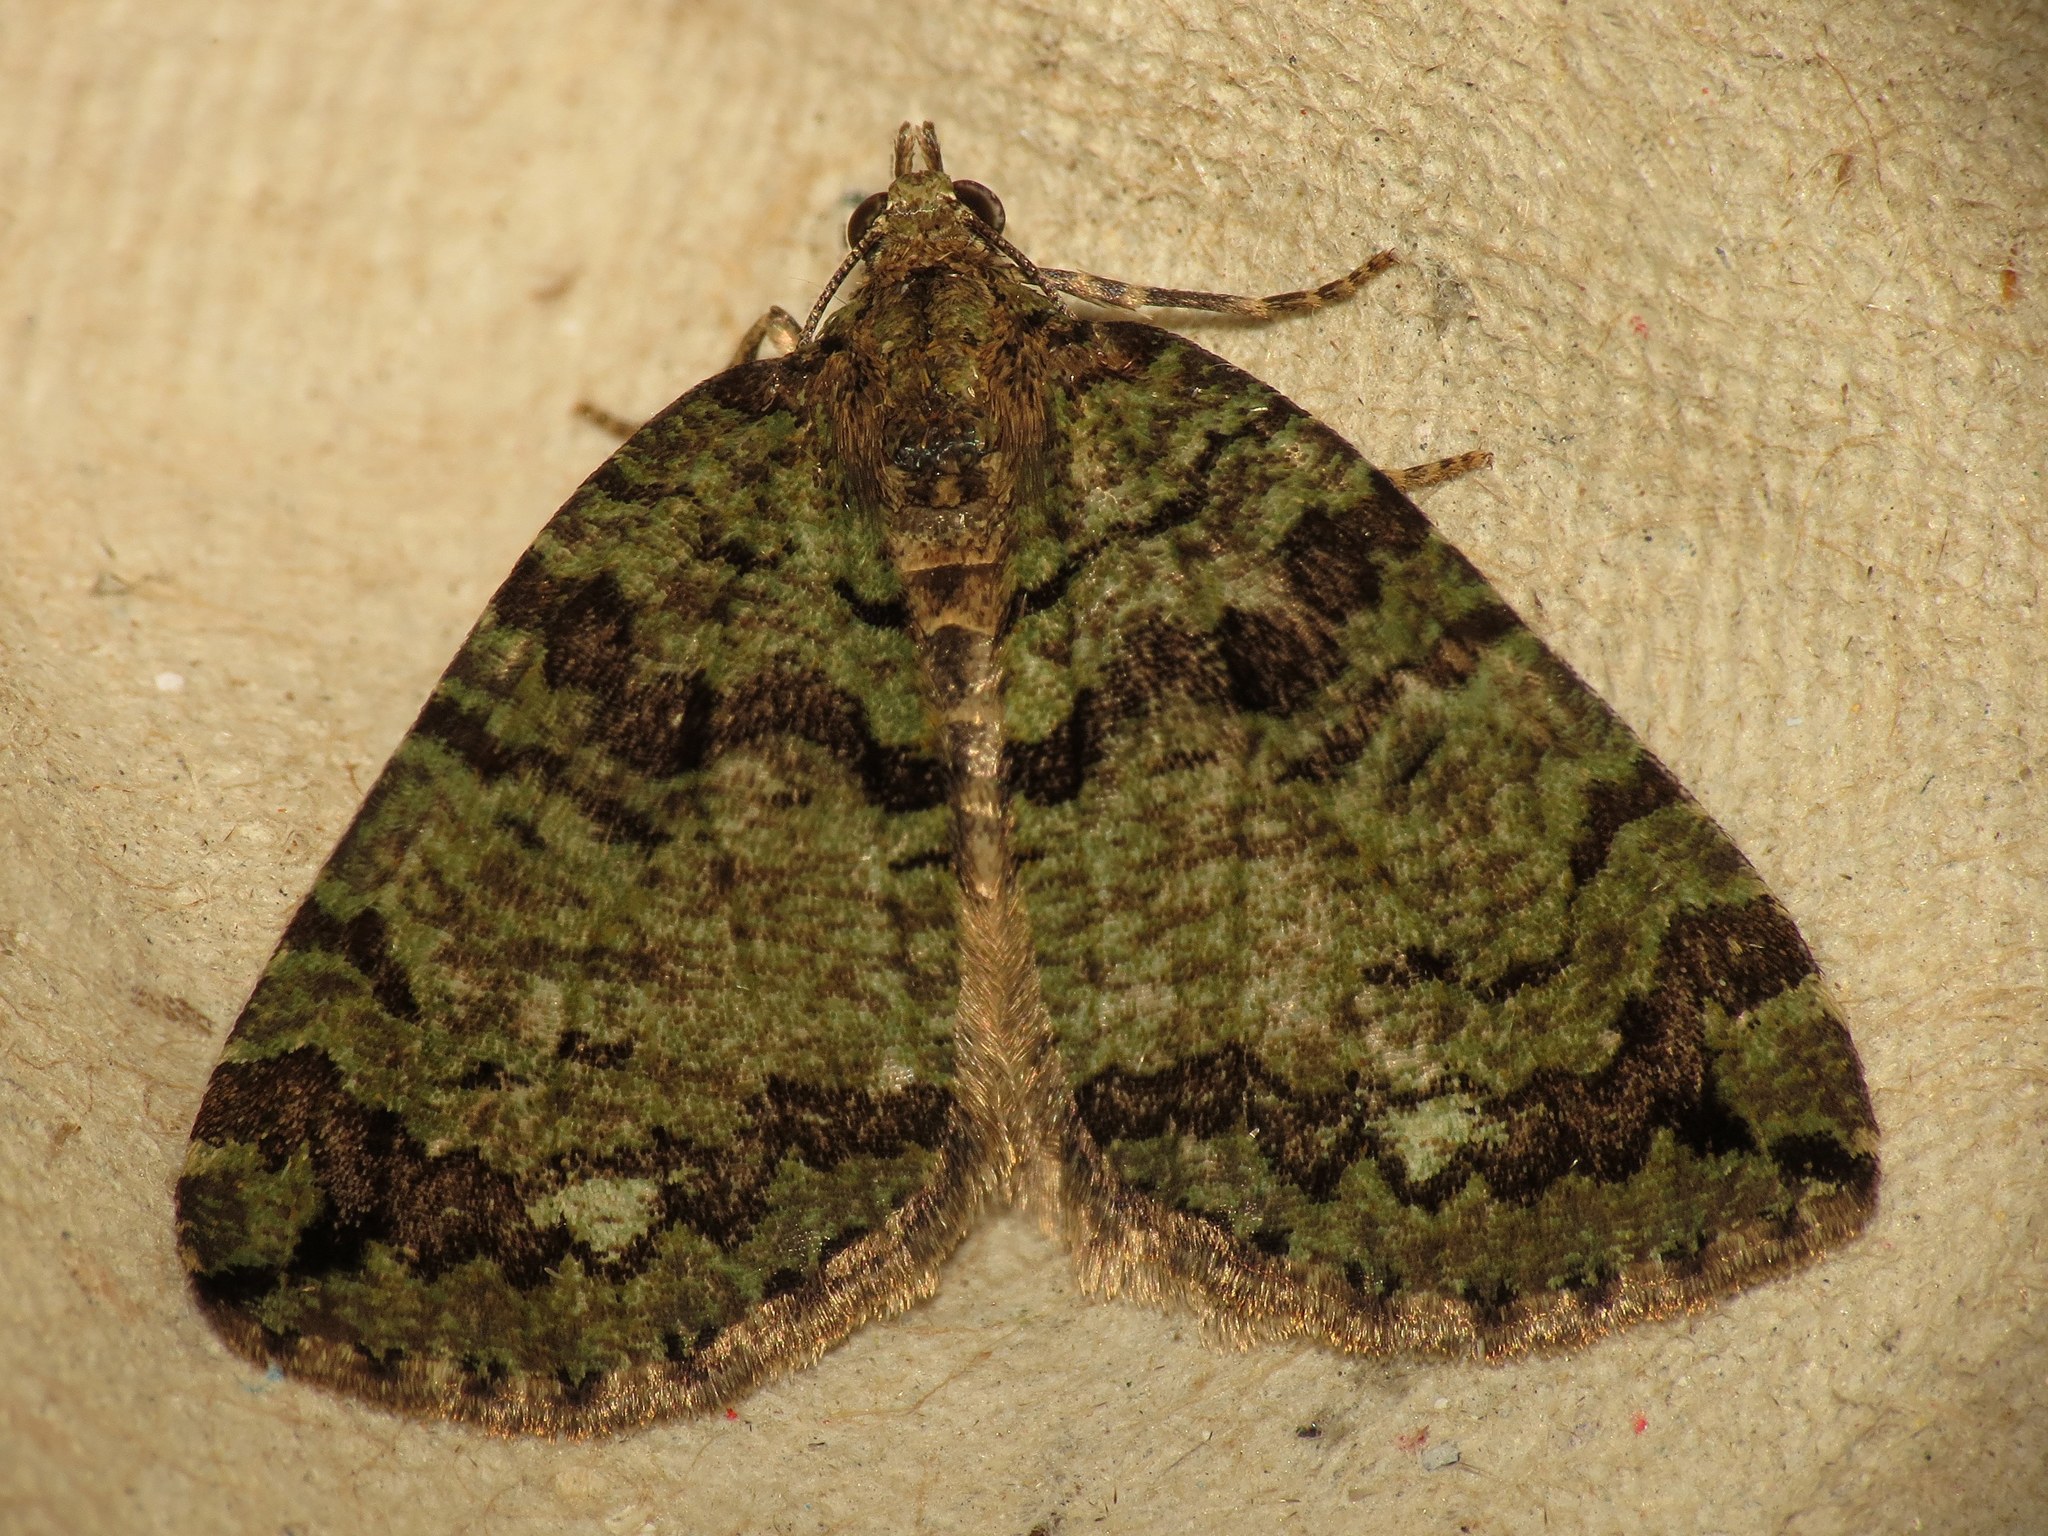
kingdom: Animalia
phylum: Arthropoda
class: Insecta
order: Lepidoptera
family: Geometridae
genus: Hydriomena
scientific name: Hydriomena furcata
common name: July highflyer
